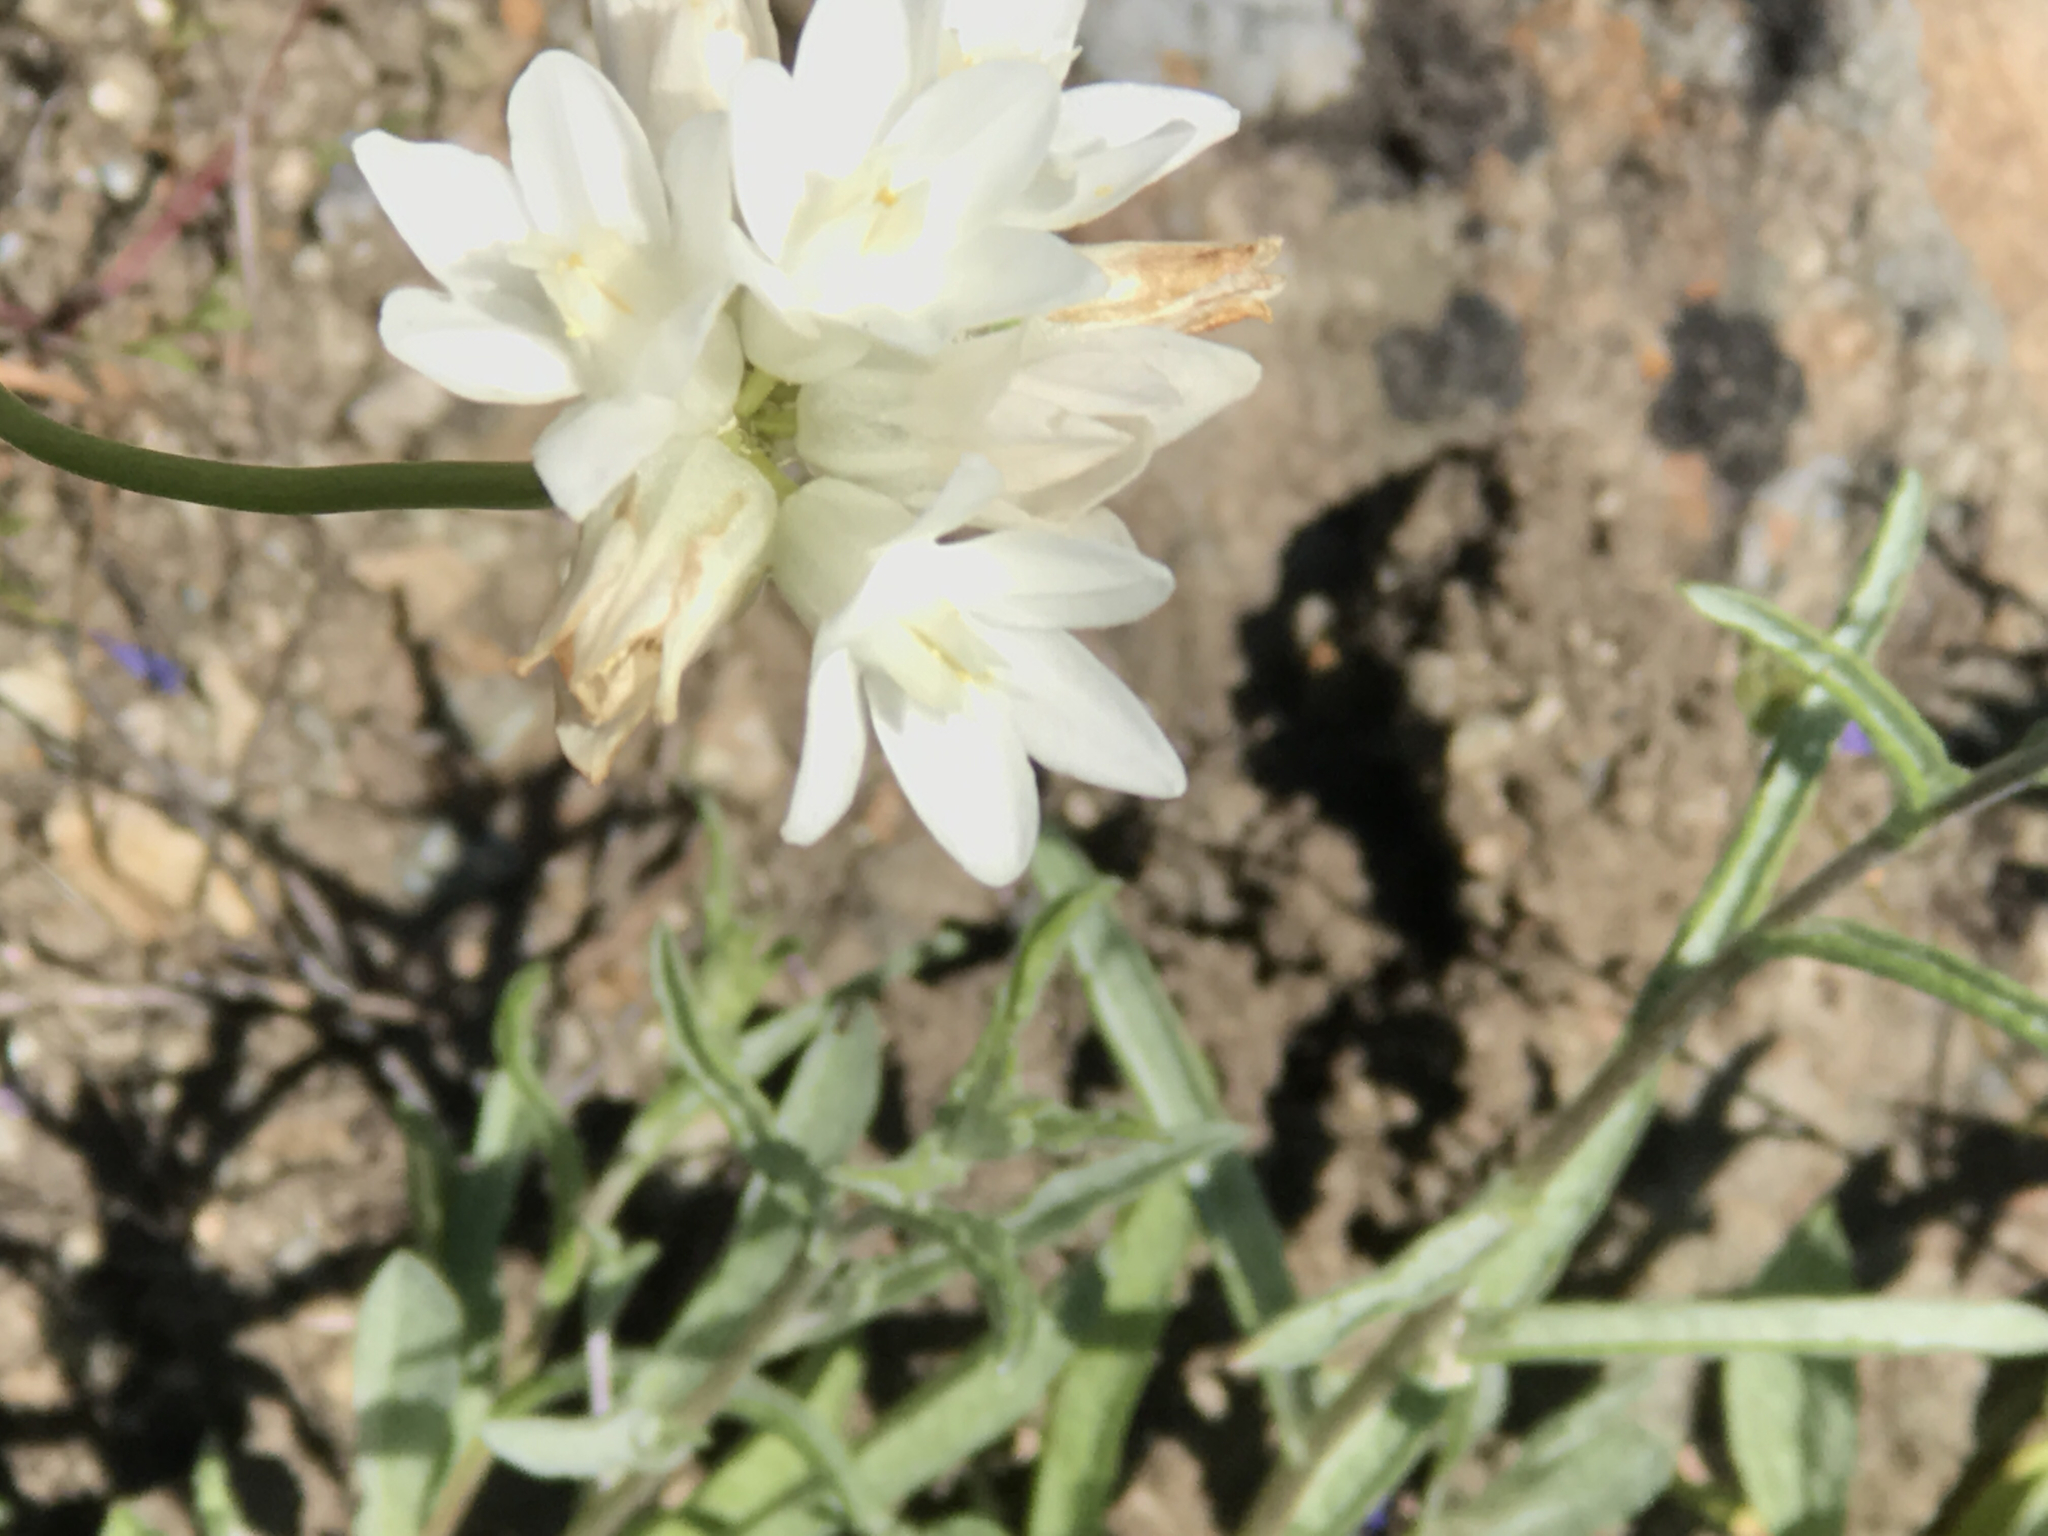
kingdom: Plantae
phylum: Tracheophyta
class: Liliopsida
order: Asparagales
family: Asparagaceae
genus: Dipterostemon
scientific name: Dipterostemon capitatus
